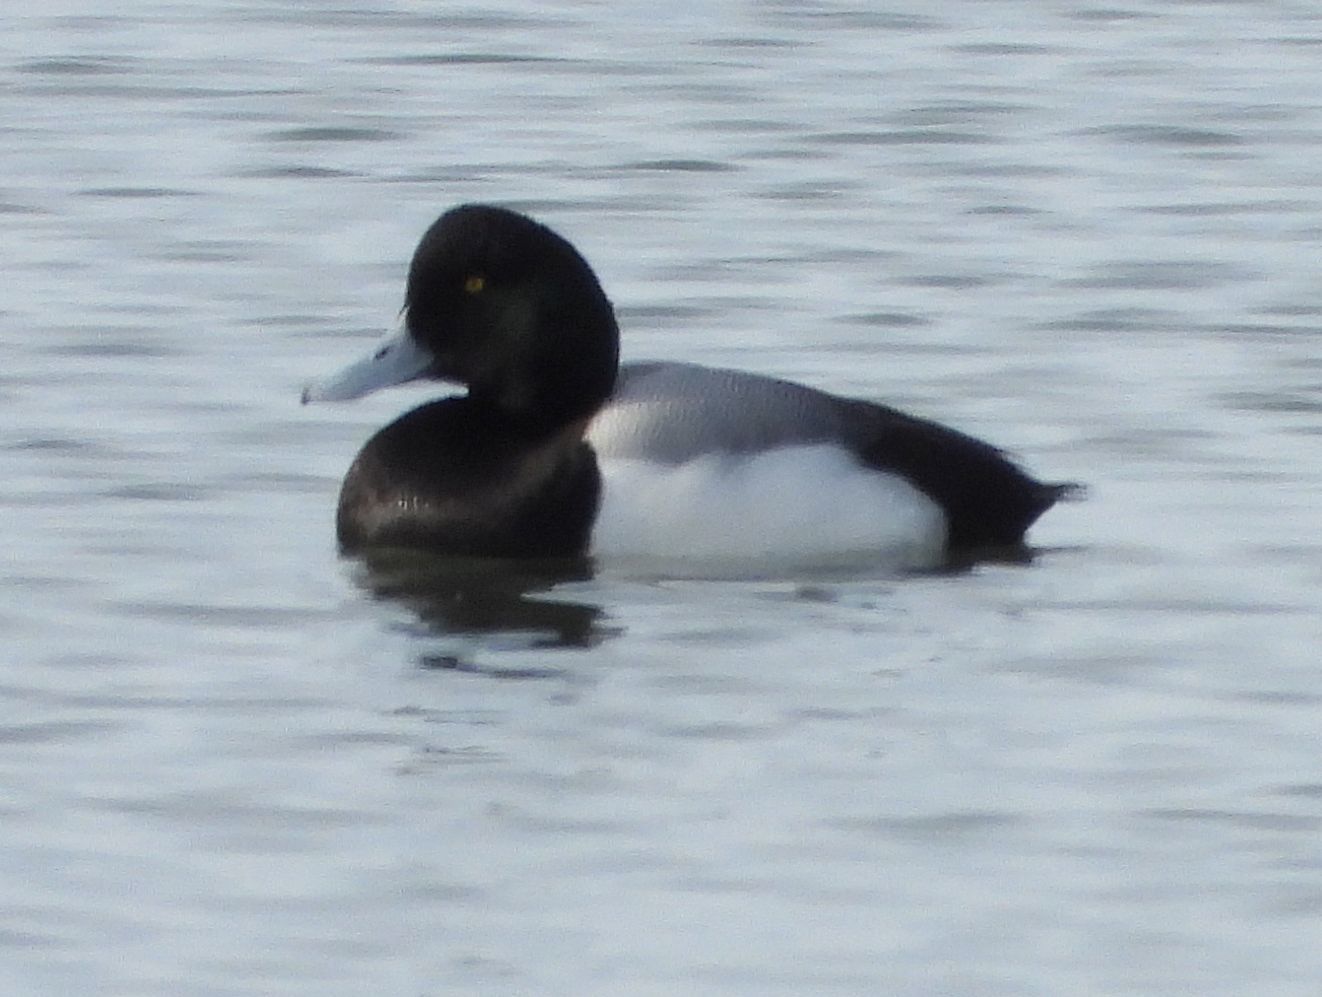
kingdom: Animalia
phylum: Chordata
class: Aves
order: Anseriformes
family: Anatidae
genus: Aythya
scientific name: Aythya marila
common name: Greater scaup
